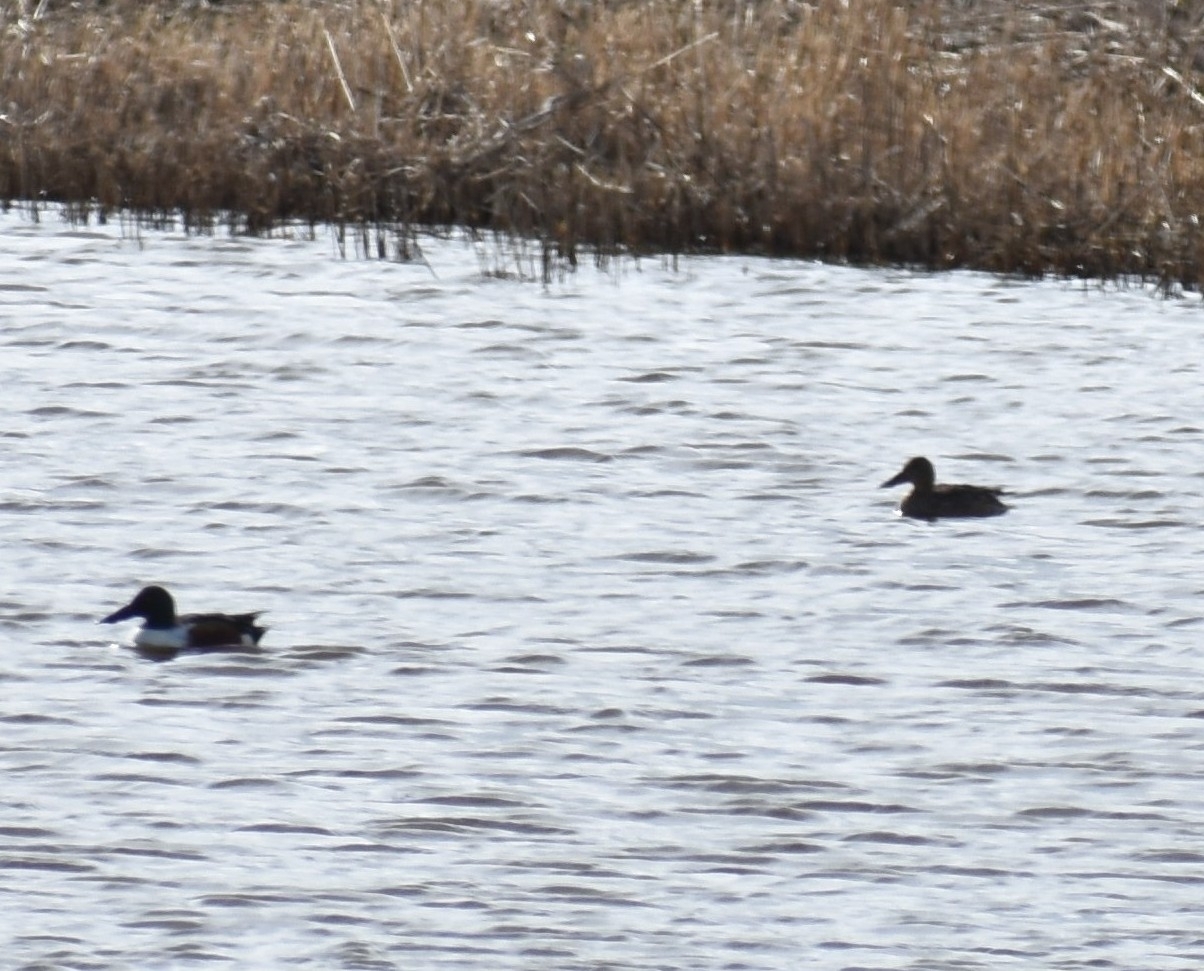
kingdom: Animalia
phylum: Chordata
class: Aves
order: Anseriformes
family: Anatidae
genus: Spatula
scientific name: Spatula clypeata
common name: Northern shoveler
